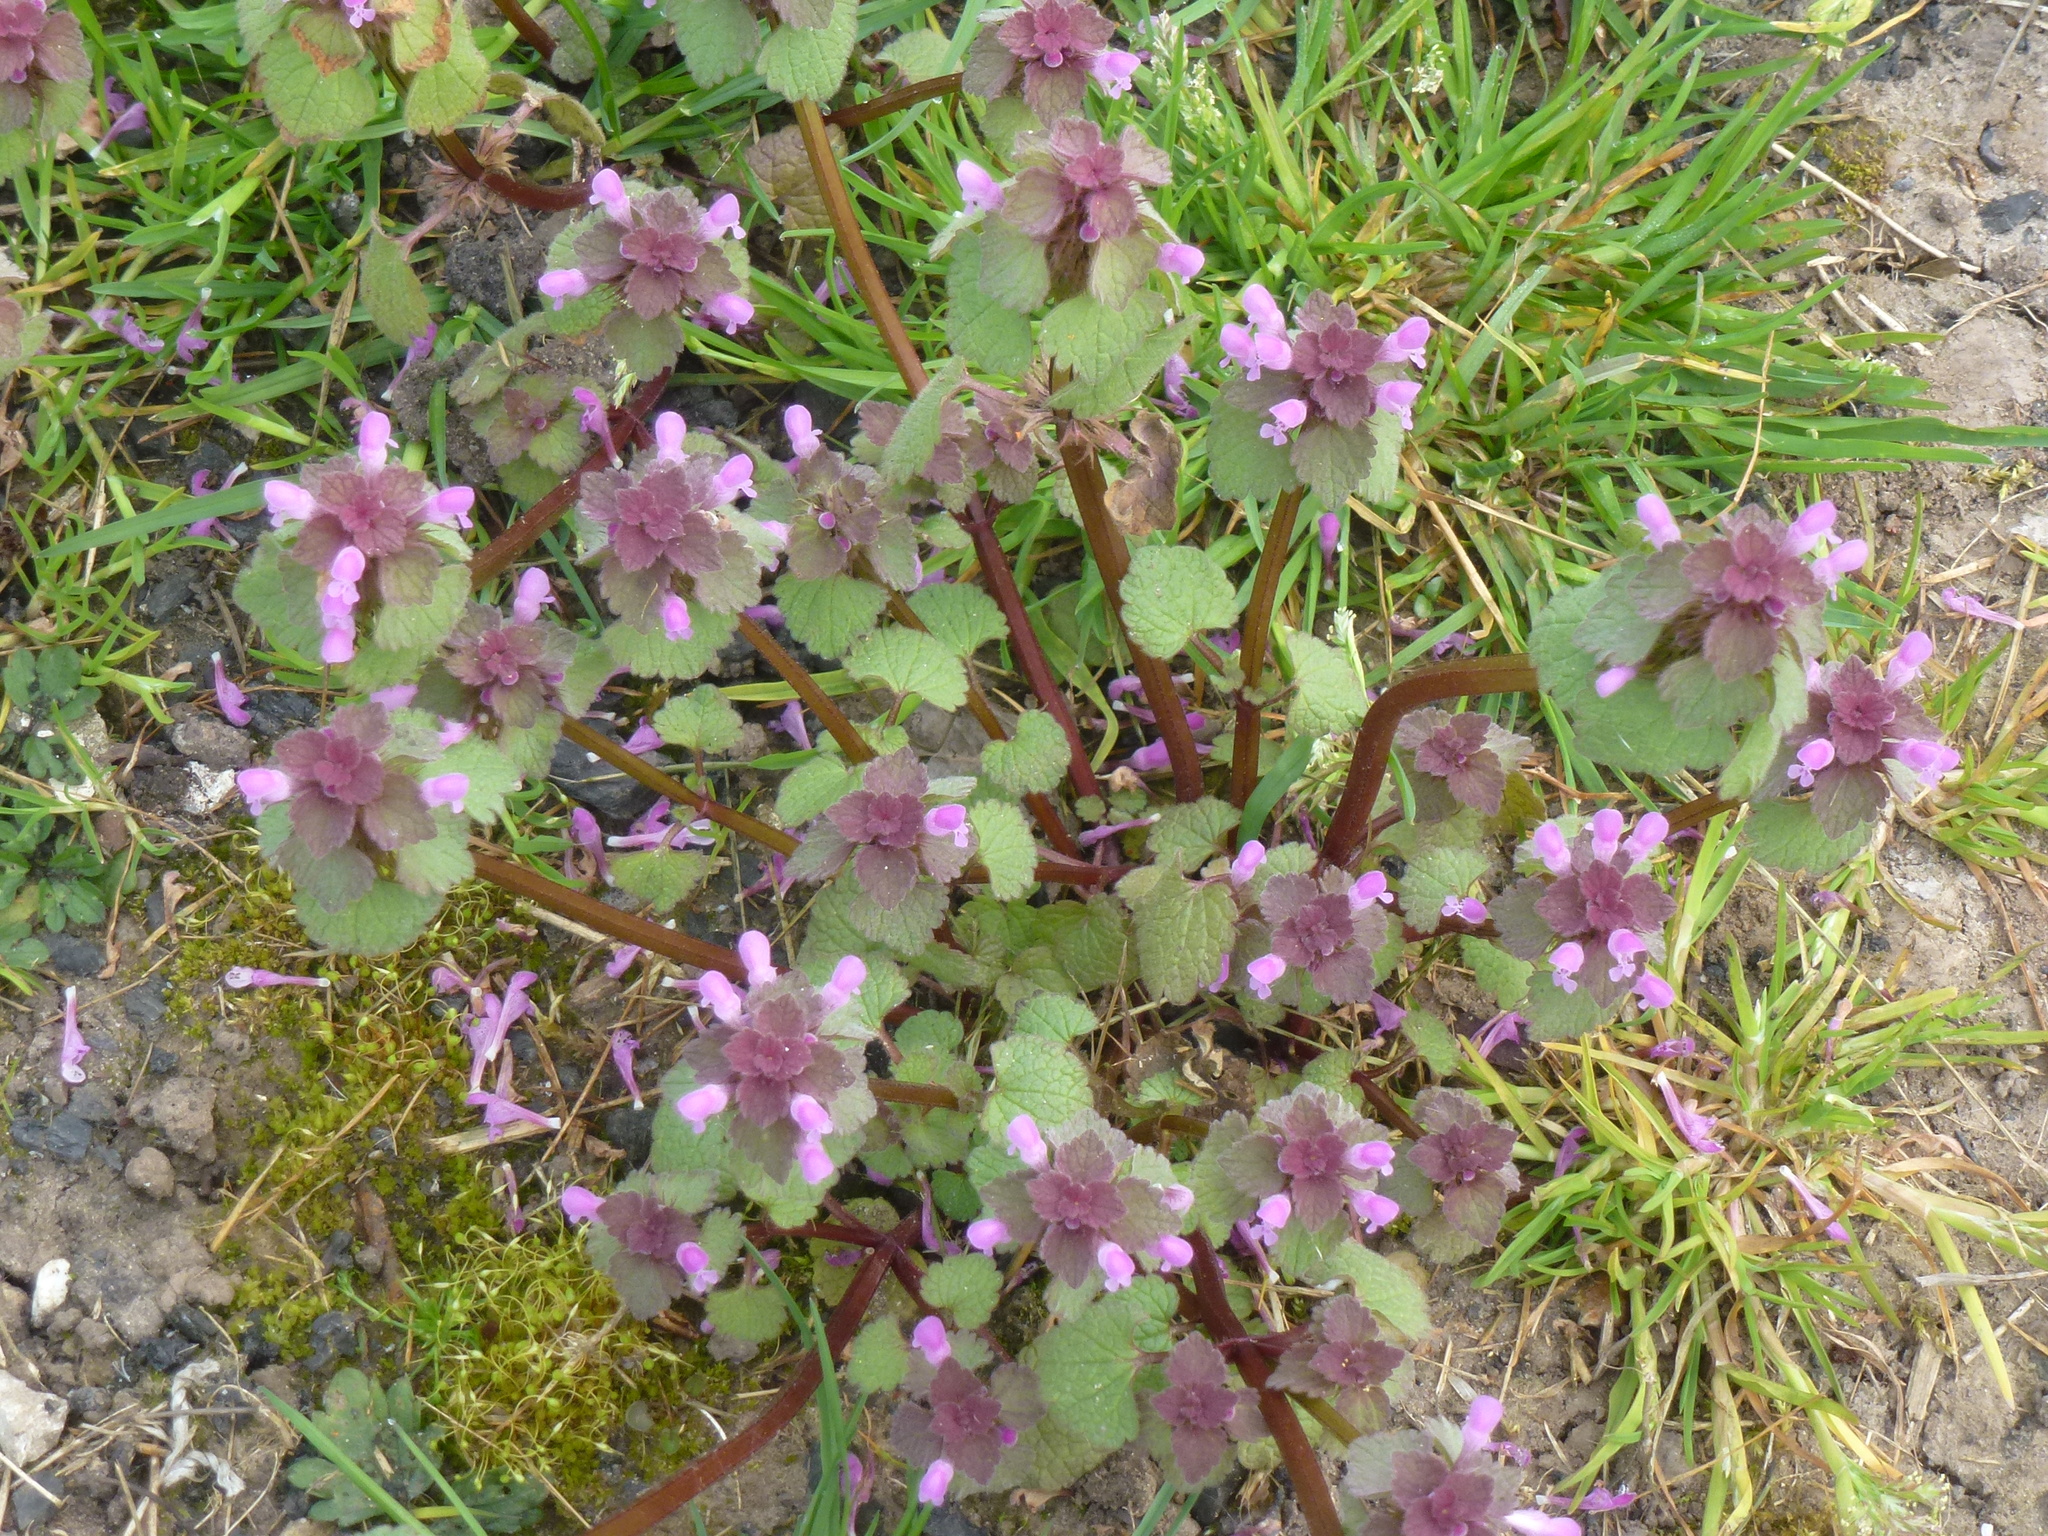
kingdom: Plantae
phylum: Tracheophyta
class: Magnoliopsida
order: Lamiales
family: Lamiaceae
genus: Lamium
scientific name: Lamium purpureum
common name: Red dead-nettle
